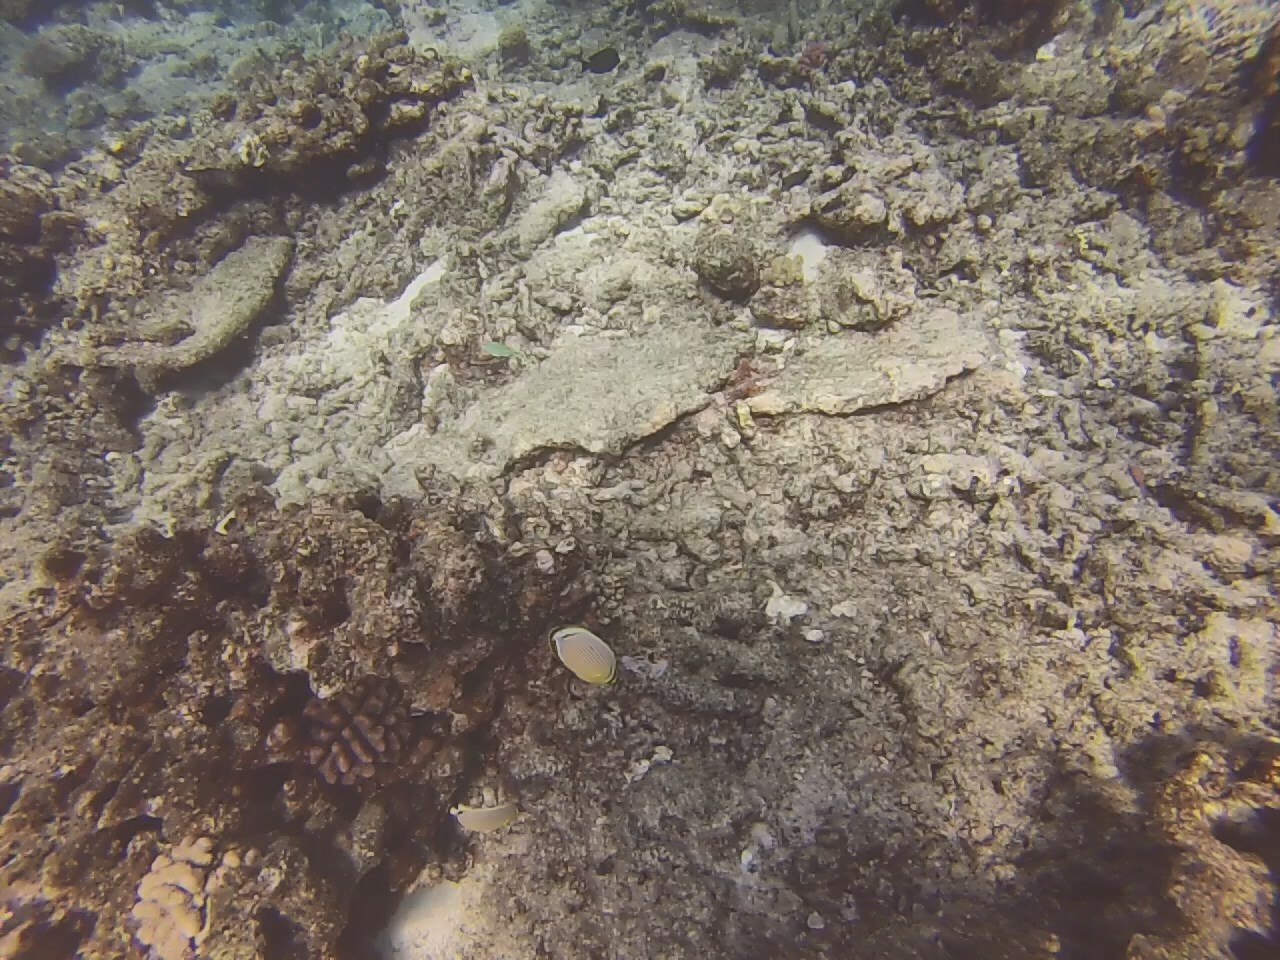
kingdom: Animalia
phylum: Chordata
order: Perciformes
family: Chaetodontidae
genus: Chaetodon
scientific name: Chaetodon lunulatus
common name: Redfin butterflyfish
